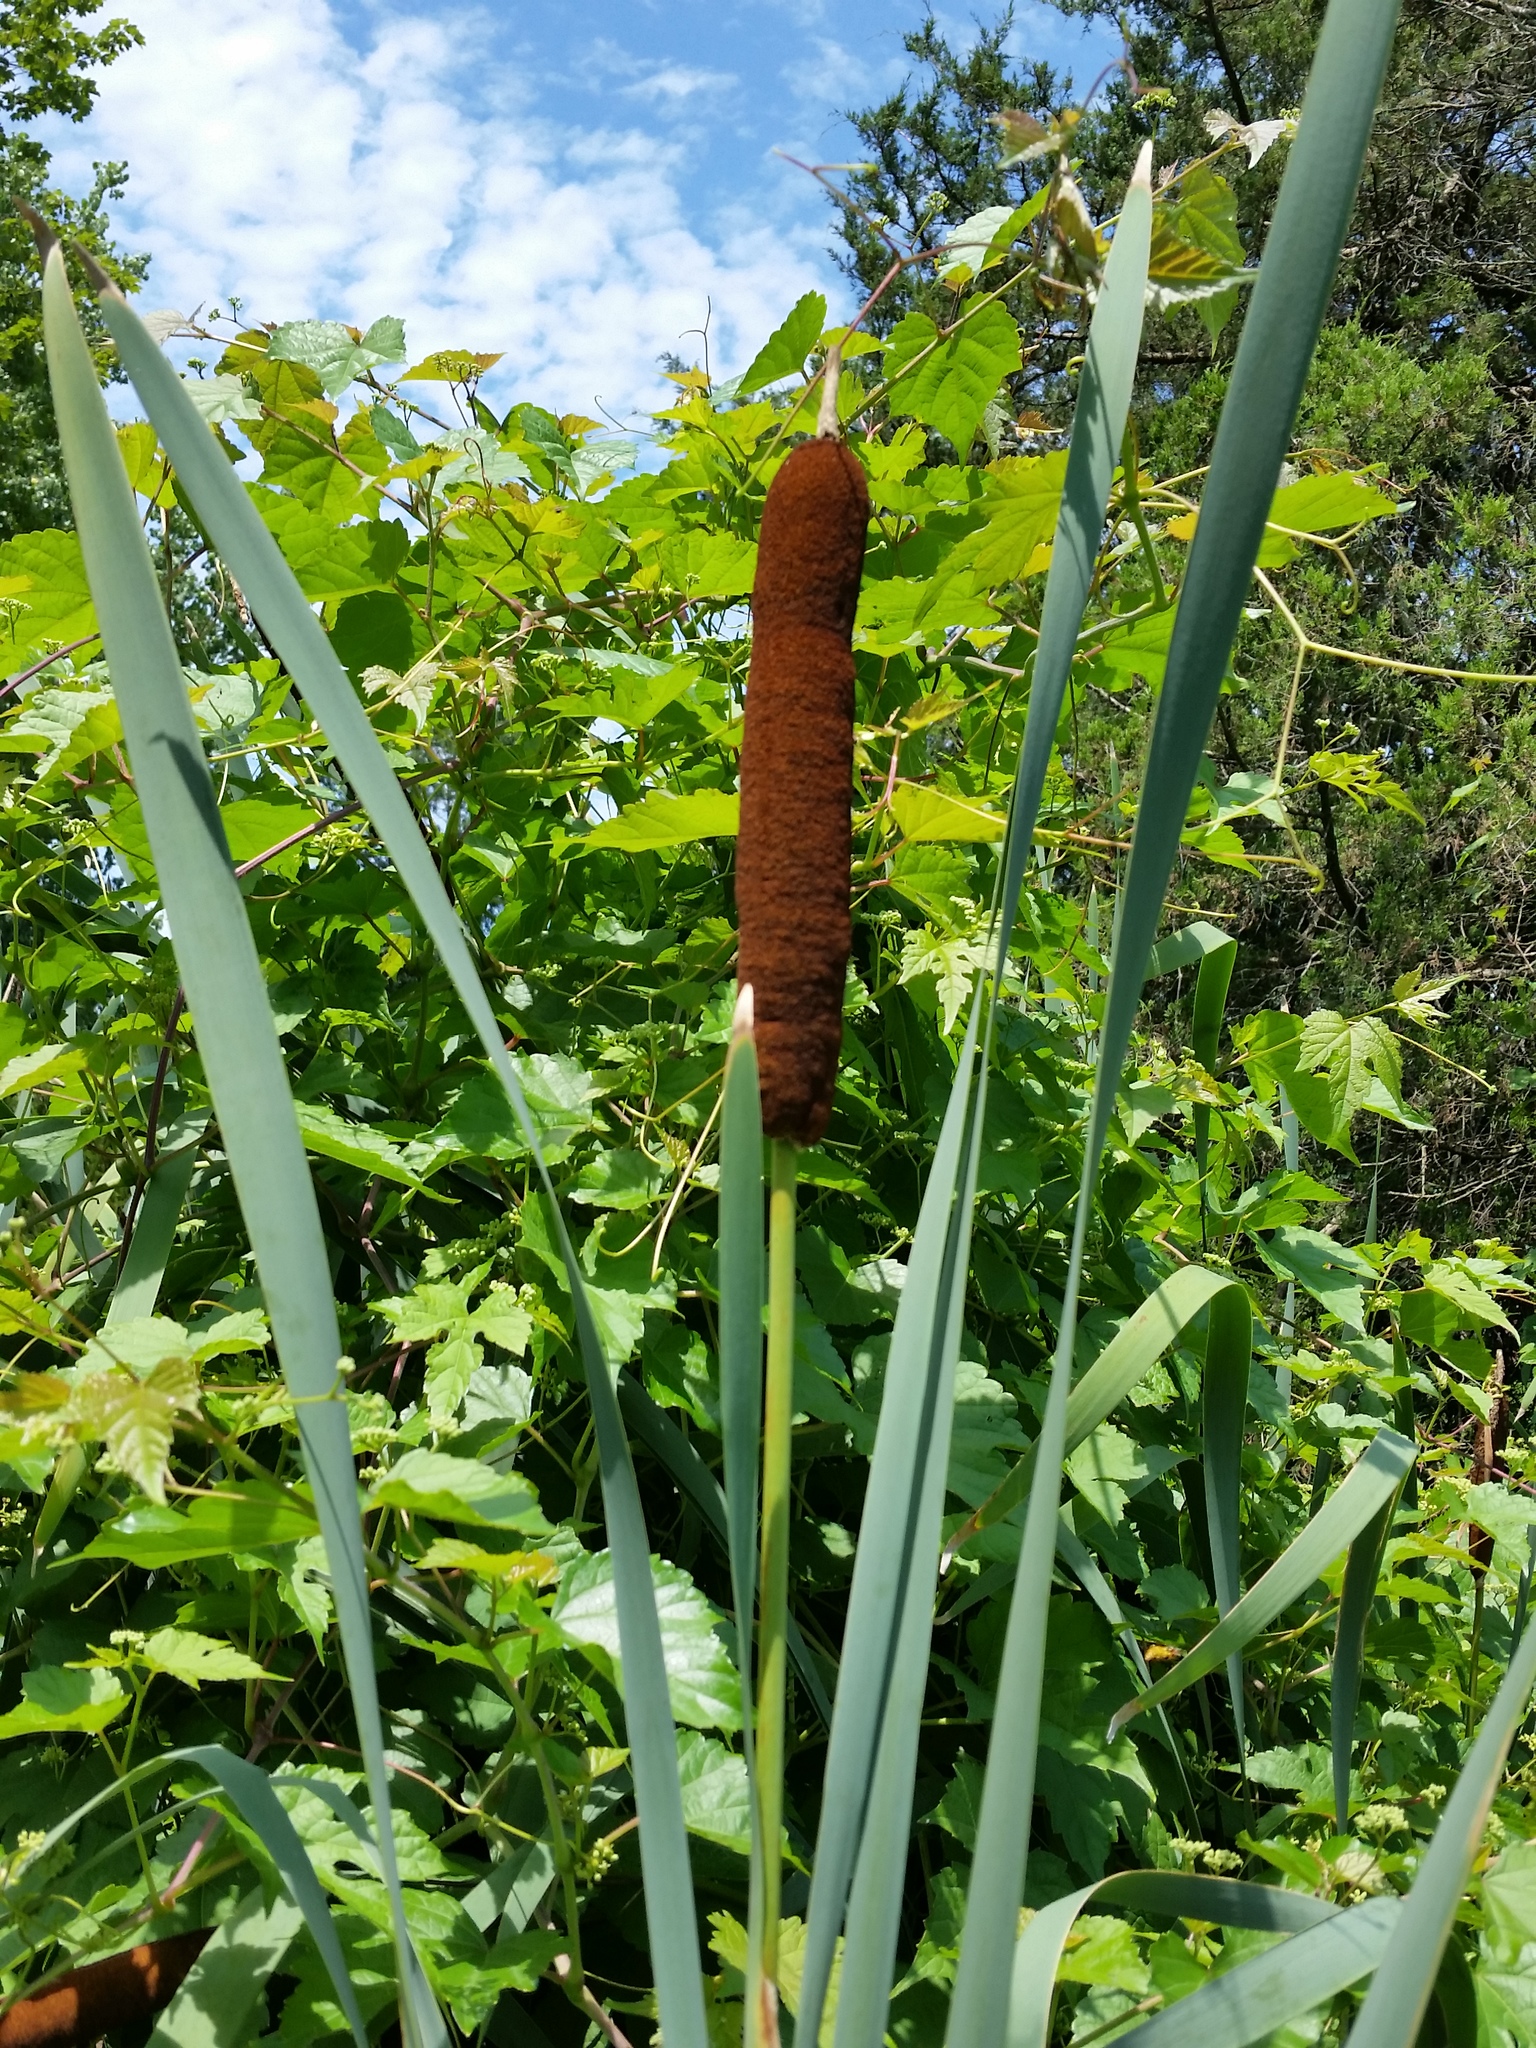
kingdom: Plantae
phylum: Tracheophyta
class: Liliopsida
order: Poales
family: Typhaceae
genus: Typha
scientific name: Typha latifolia
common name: Broadleaf cattail
